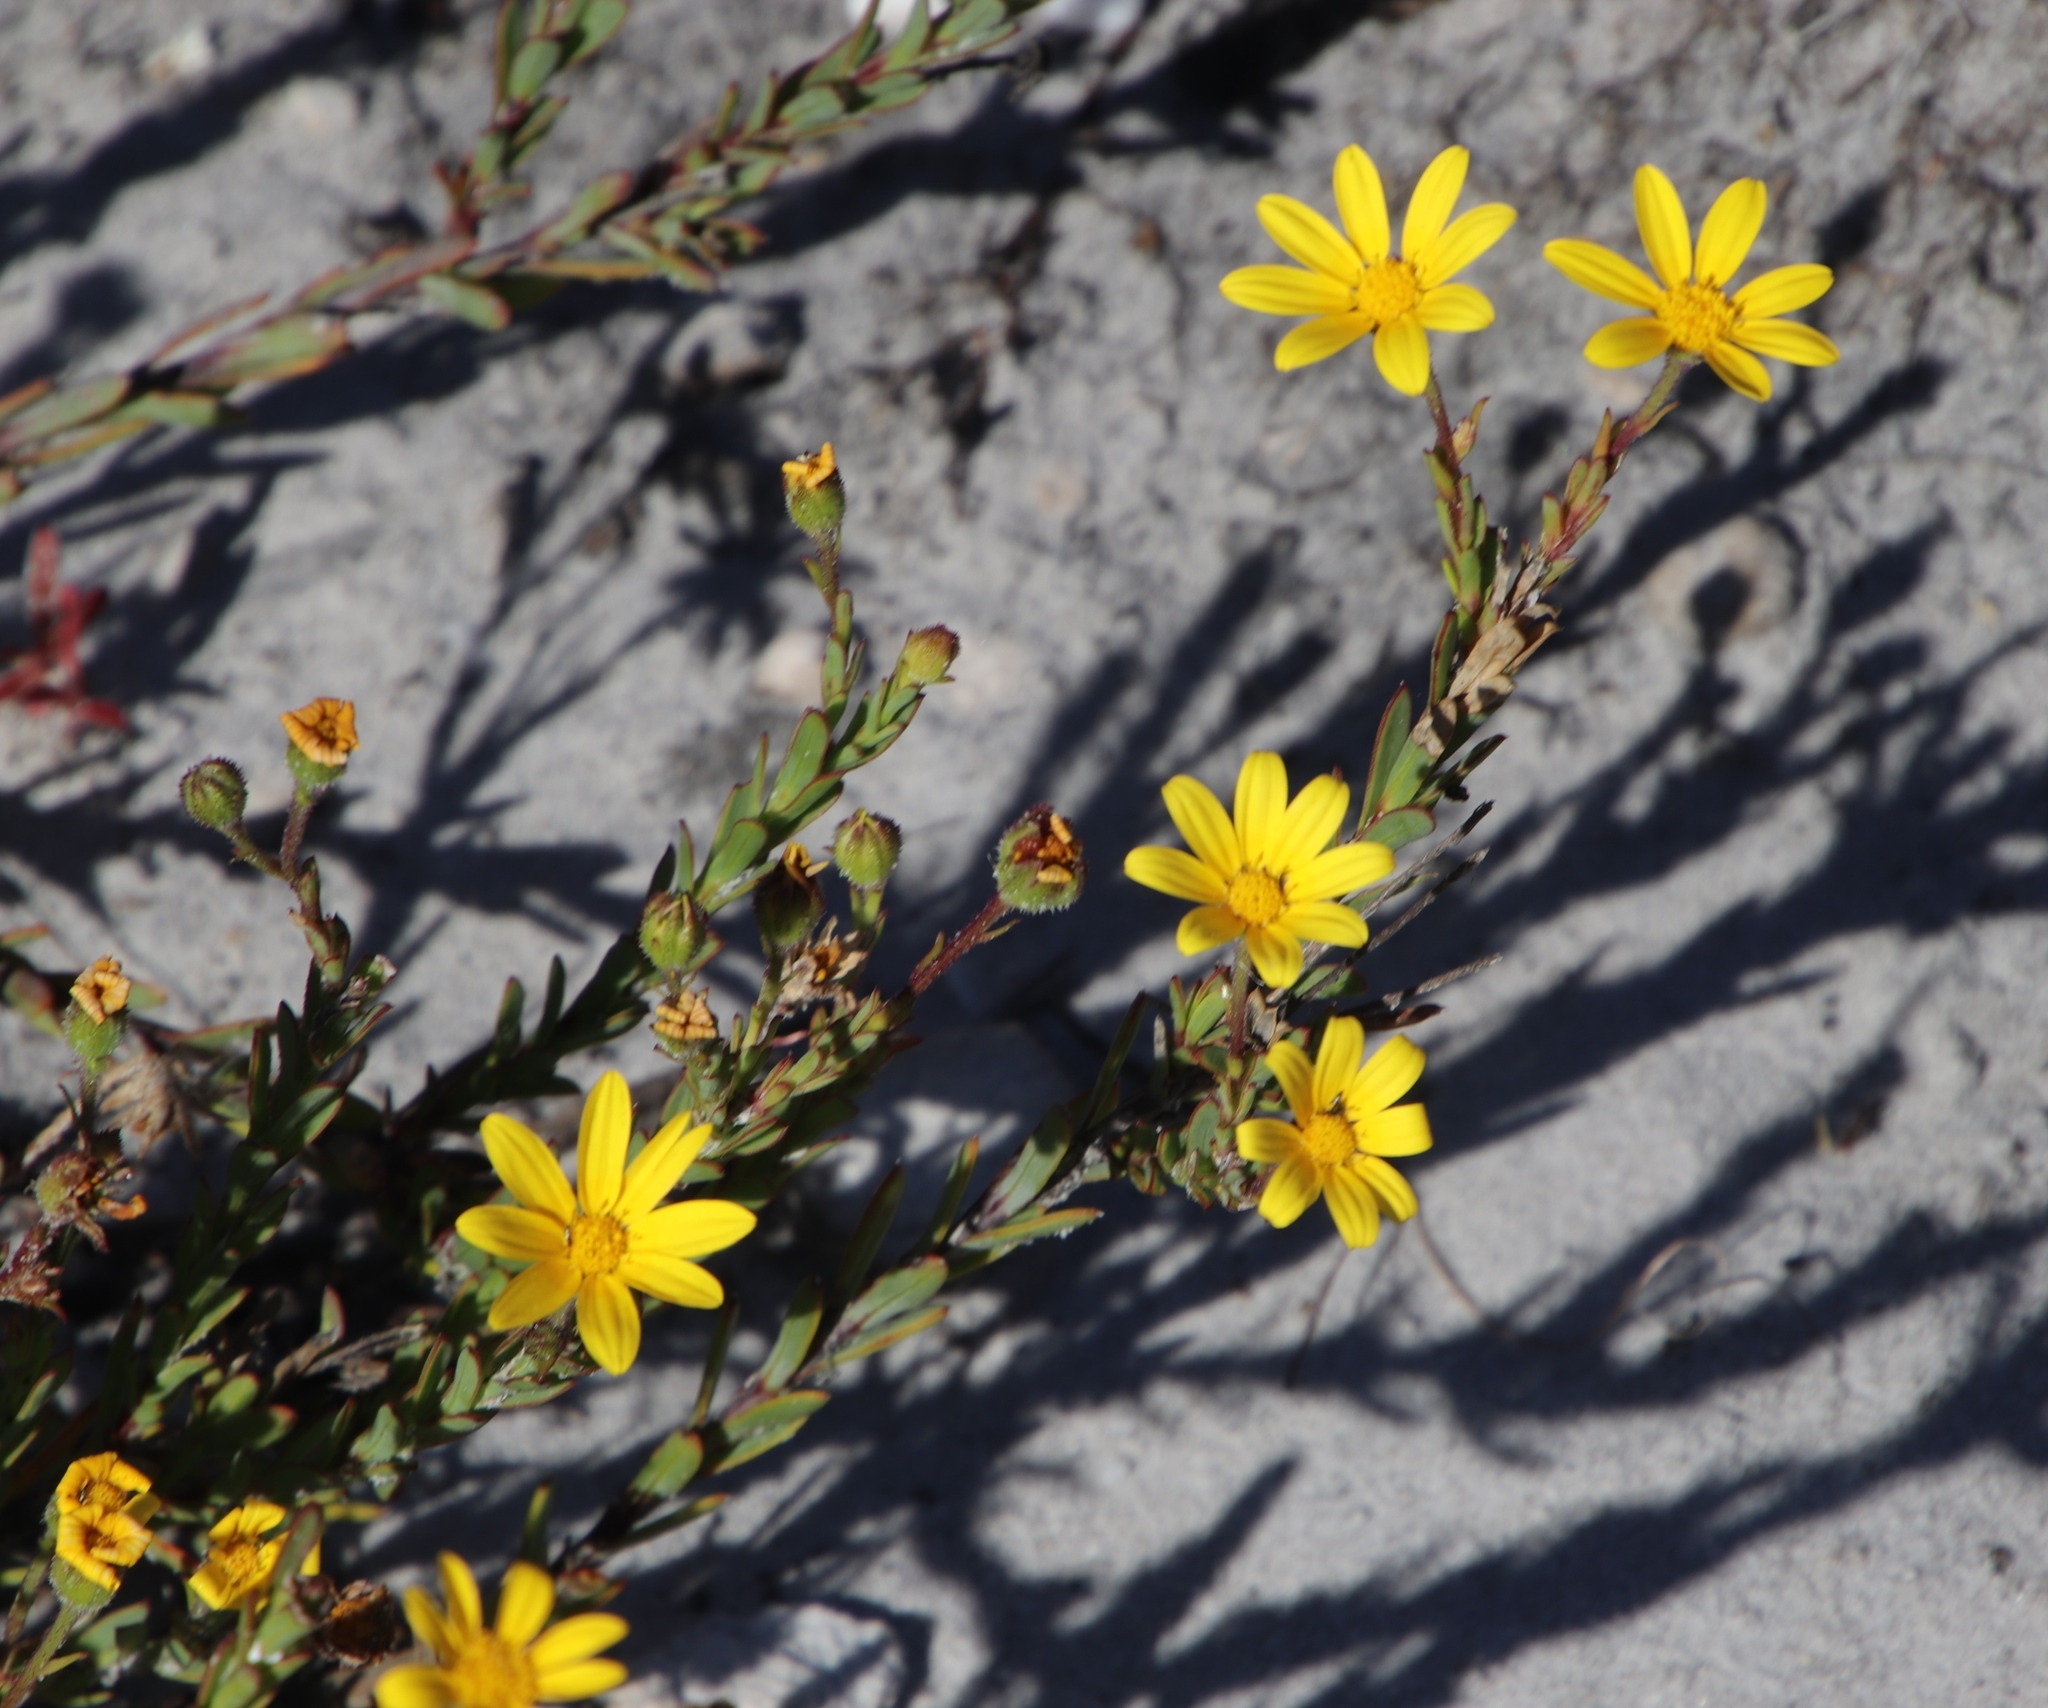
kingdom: Plantae
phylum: Tracheophyta
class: Magnoliopsida
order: Asterales
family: Asteraceae
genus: Osteospermum
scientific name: Osteospermum polygaloides
